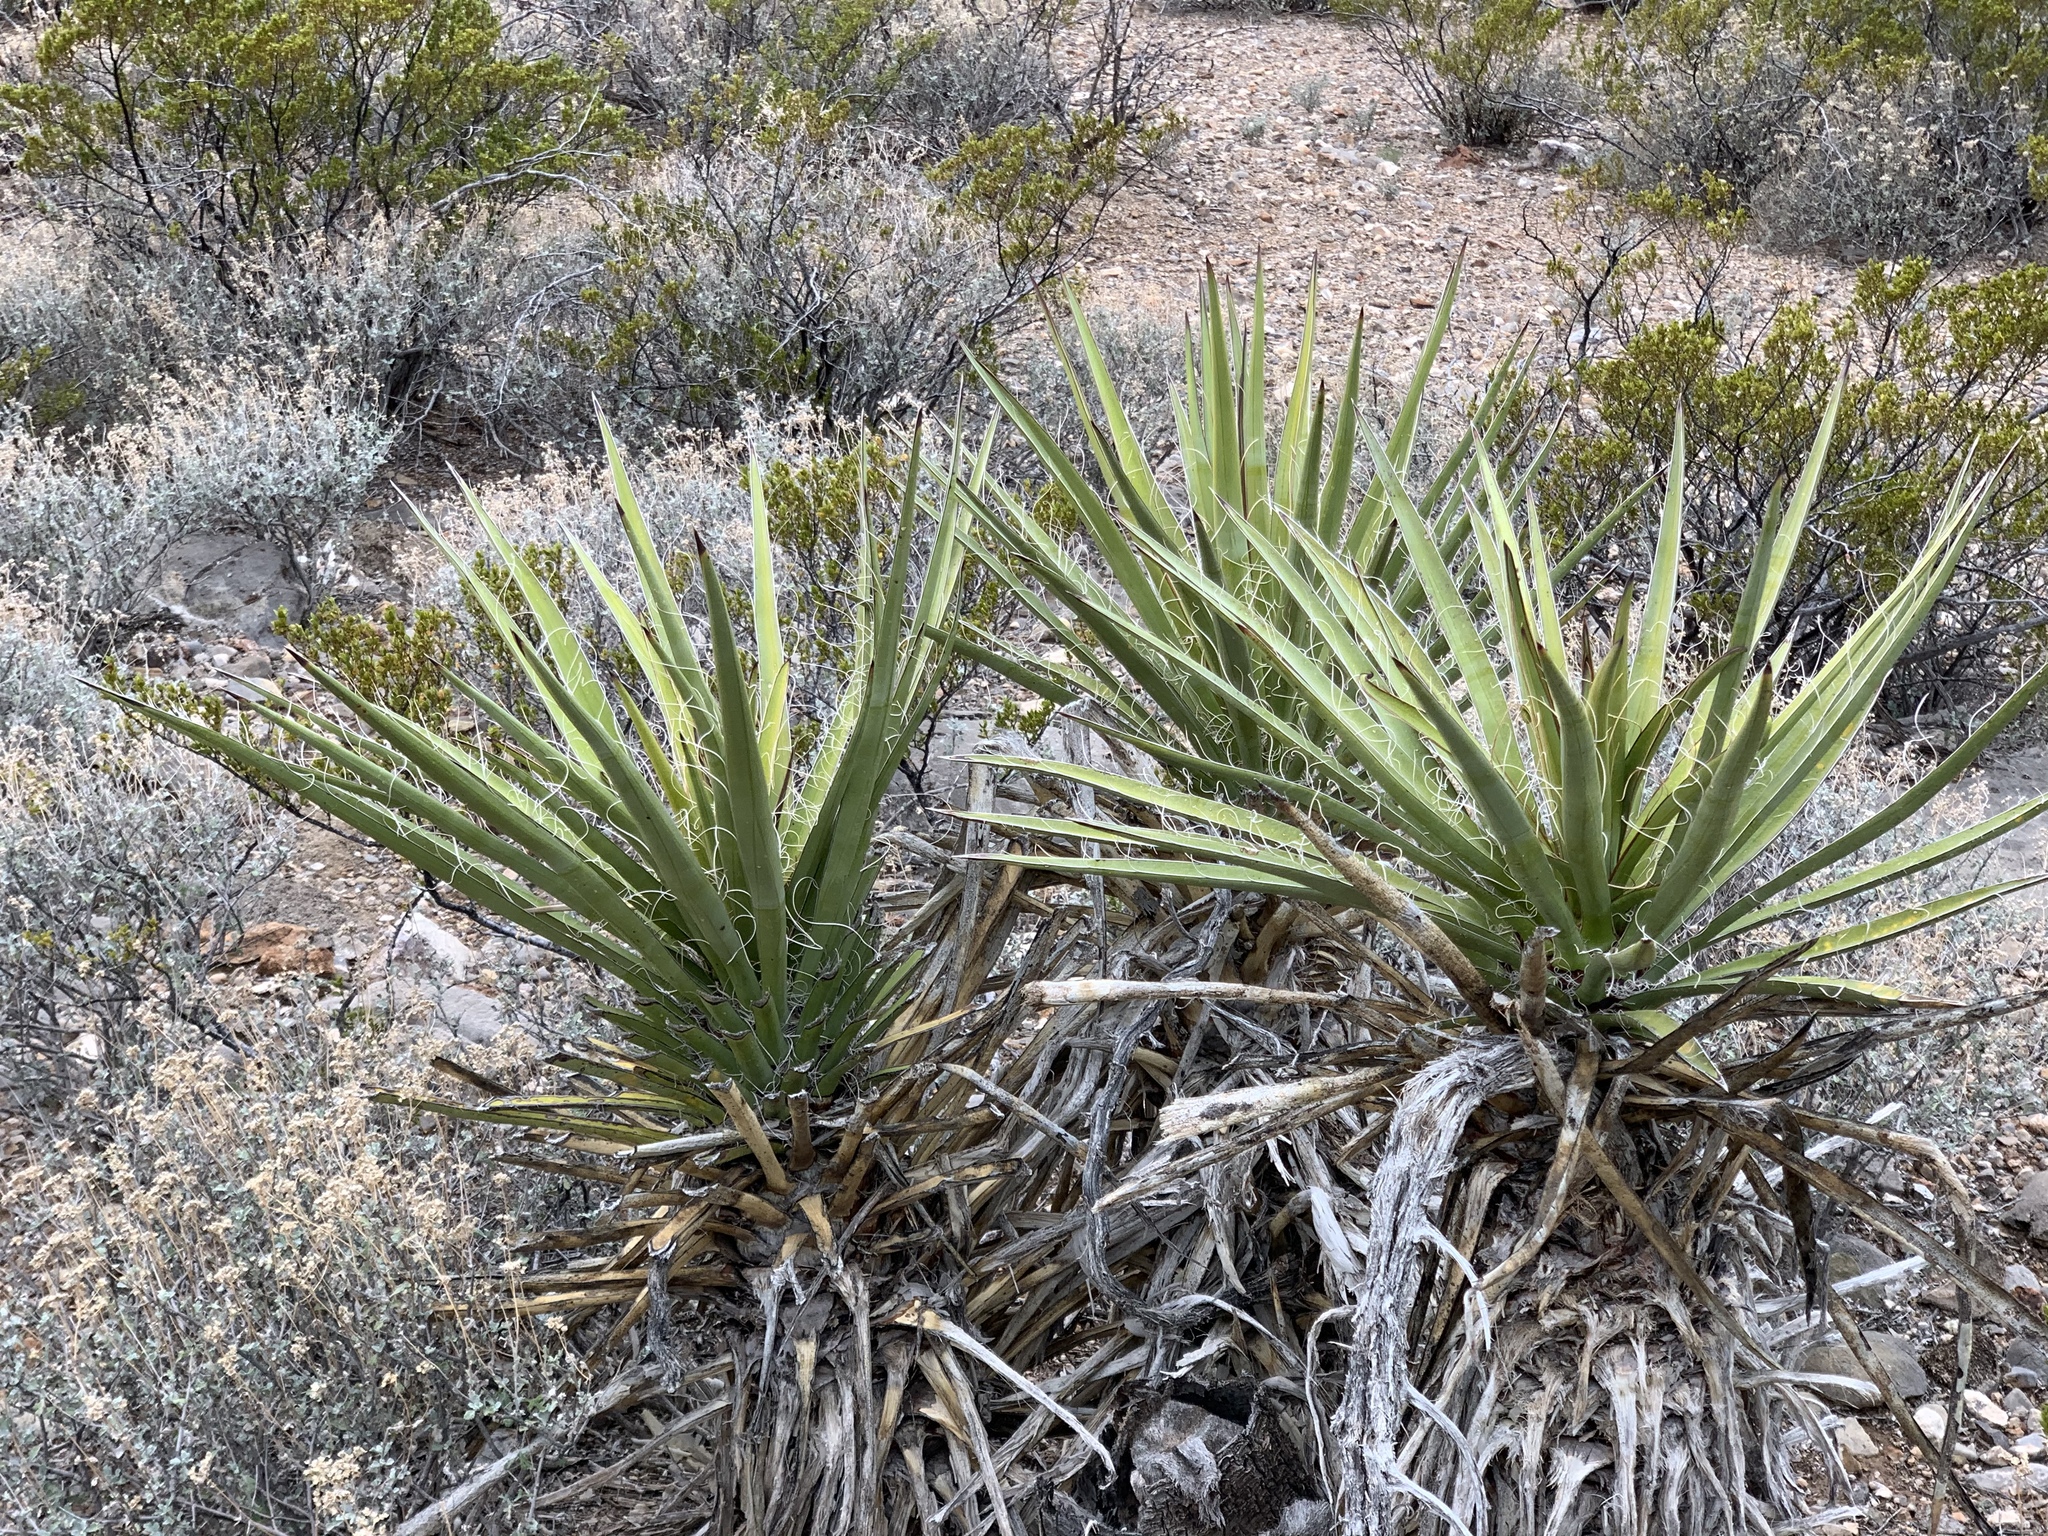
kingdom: Plantae
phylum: Tracheophyta
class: Liliopsida
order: Asparagales
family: Asparagaceae
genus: Yucca
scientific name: Yucca baccata
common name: Banana yucca
